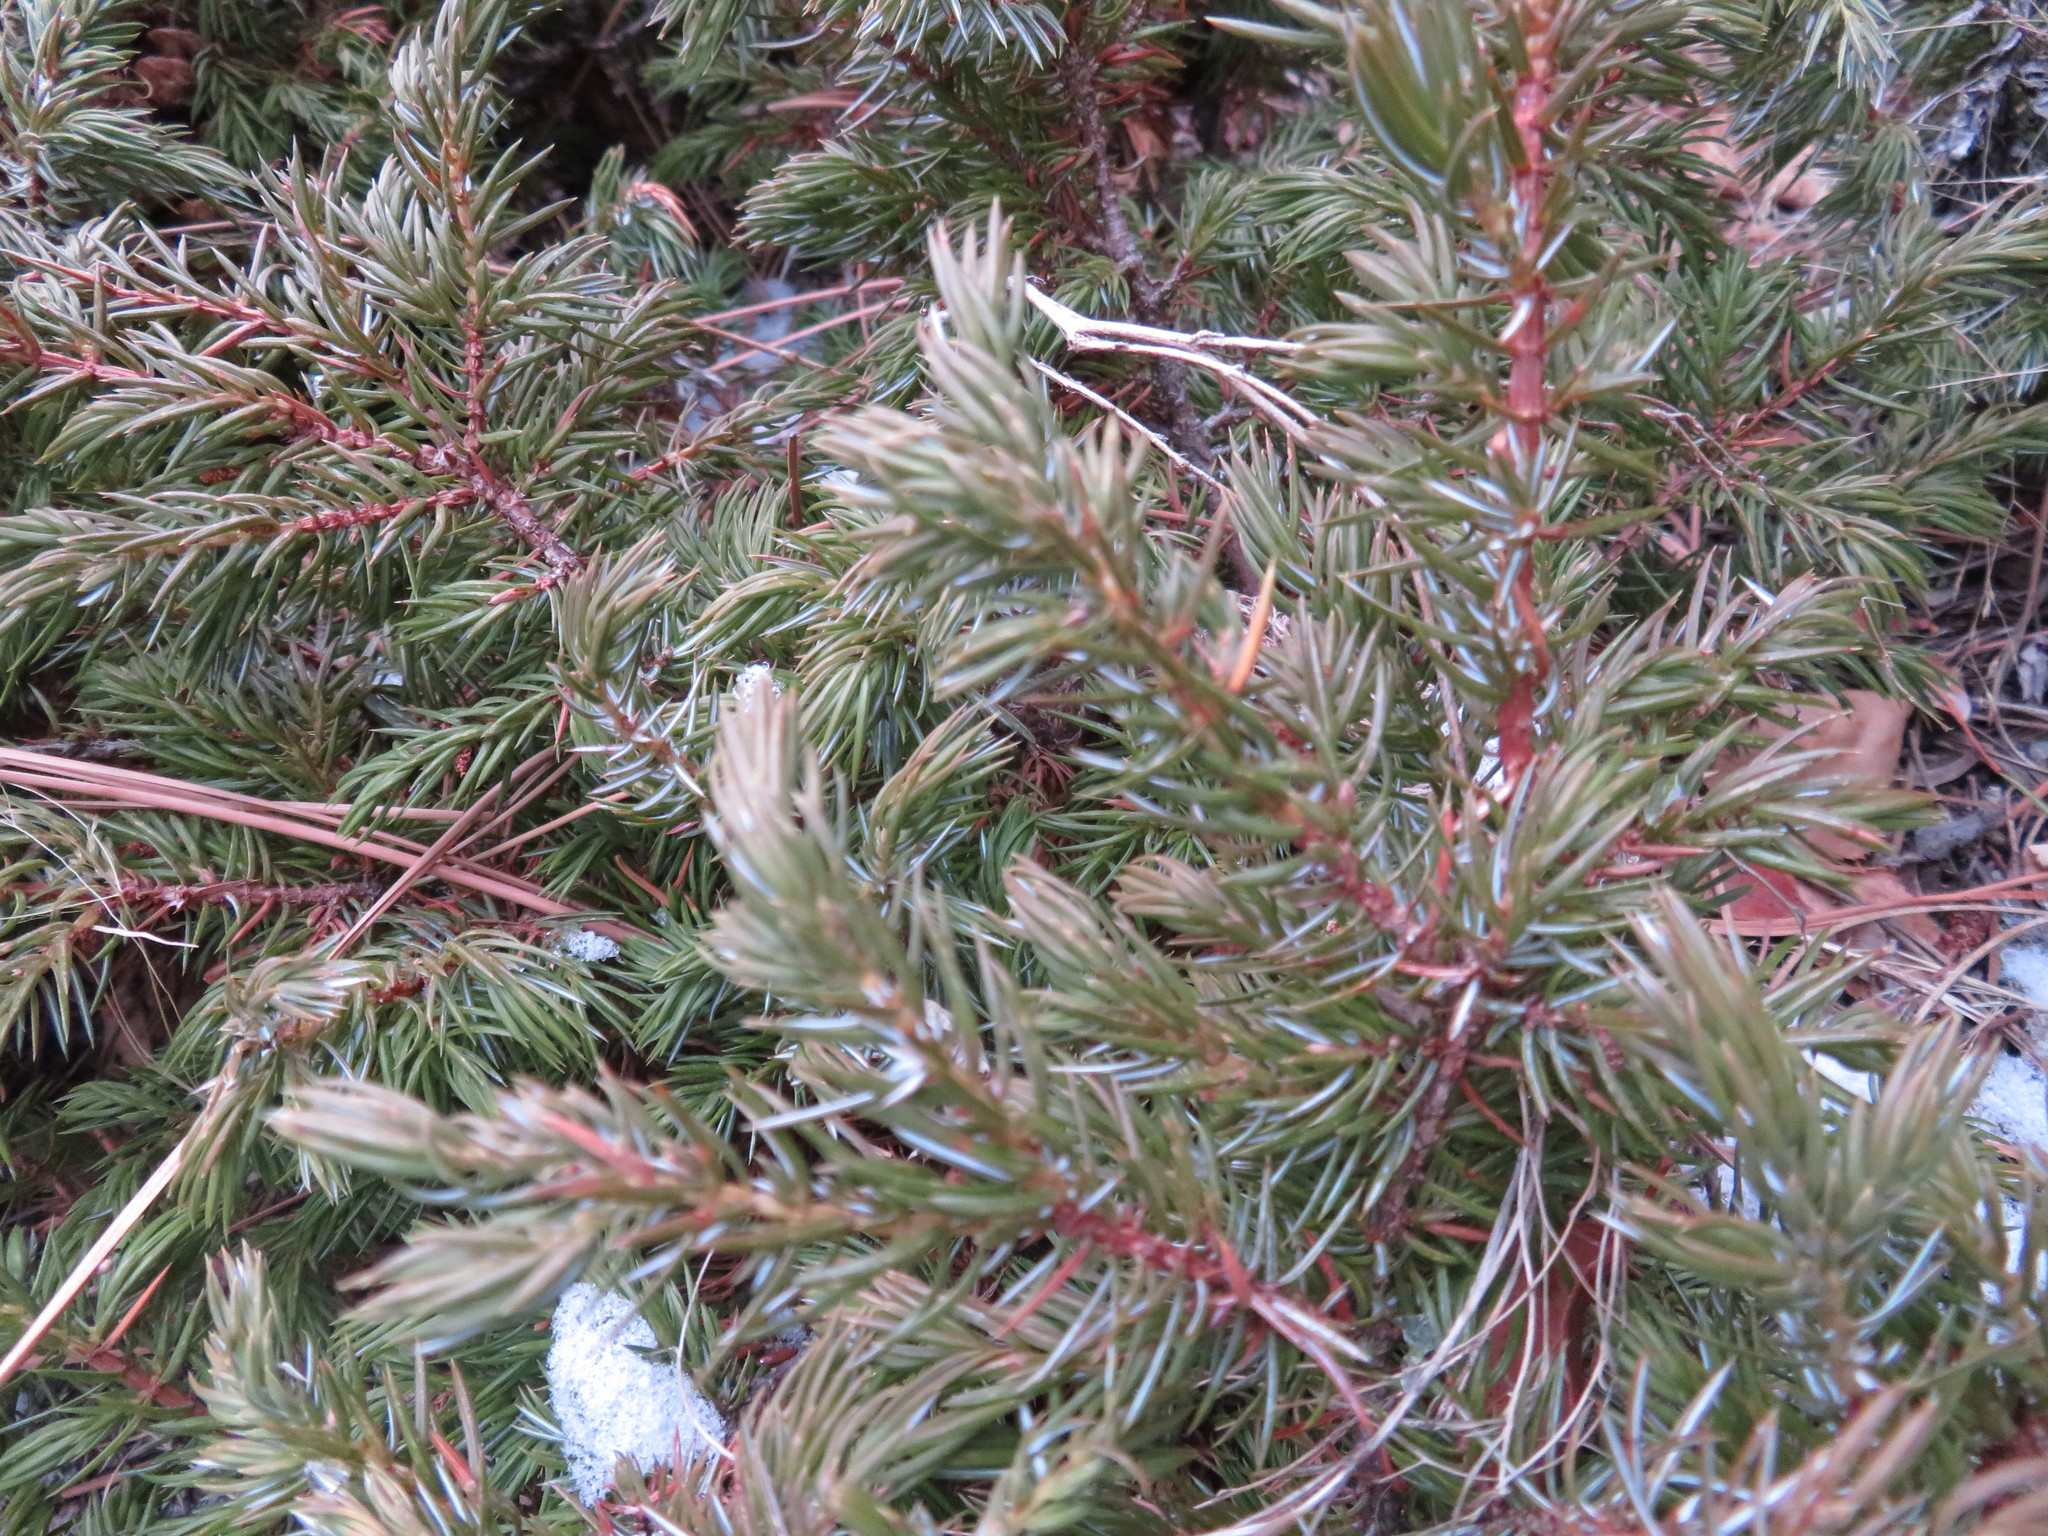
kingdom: Plantae
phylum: Tracheophyta
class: Pinopsida
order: Pinales
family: Cupressaceae
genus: Juniperus
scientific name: Juniperus communis
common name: Common juniper
